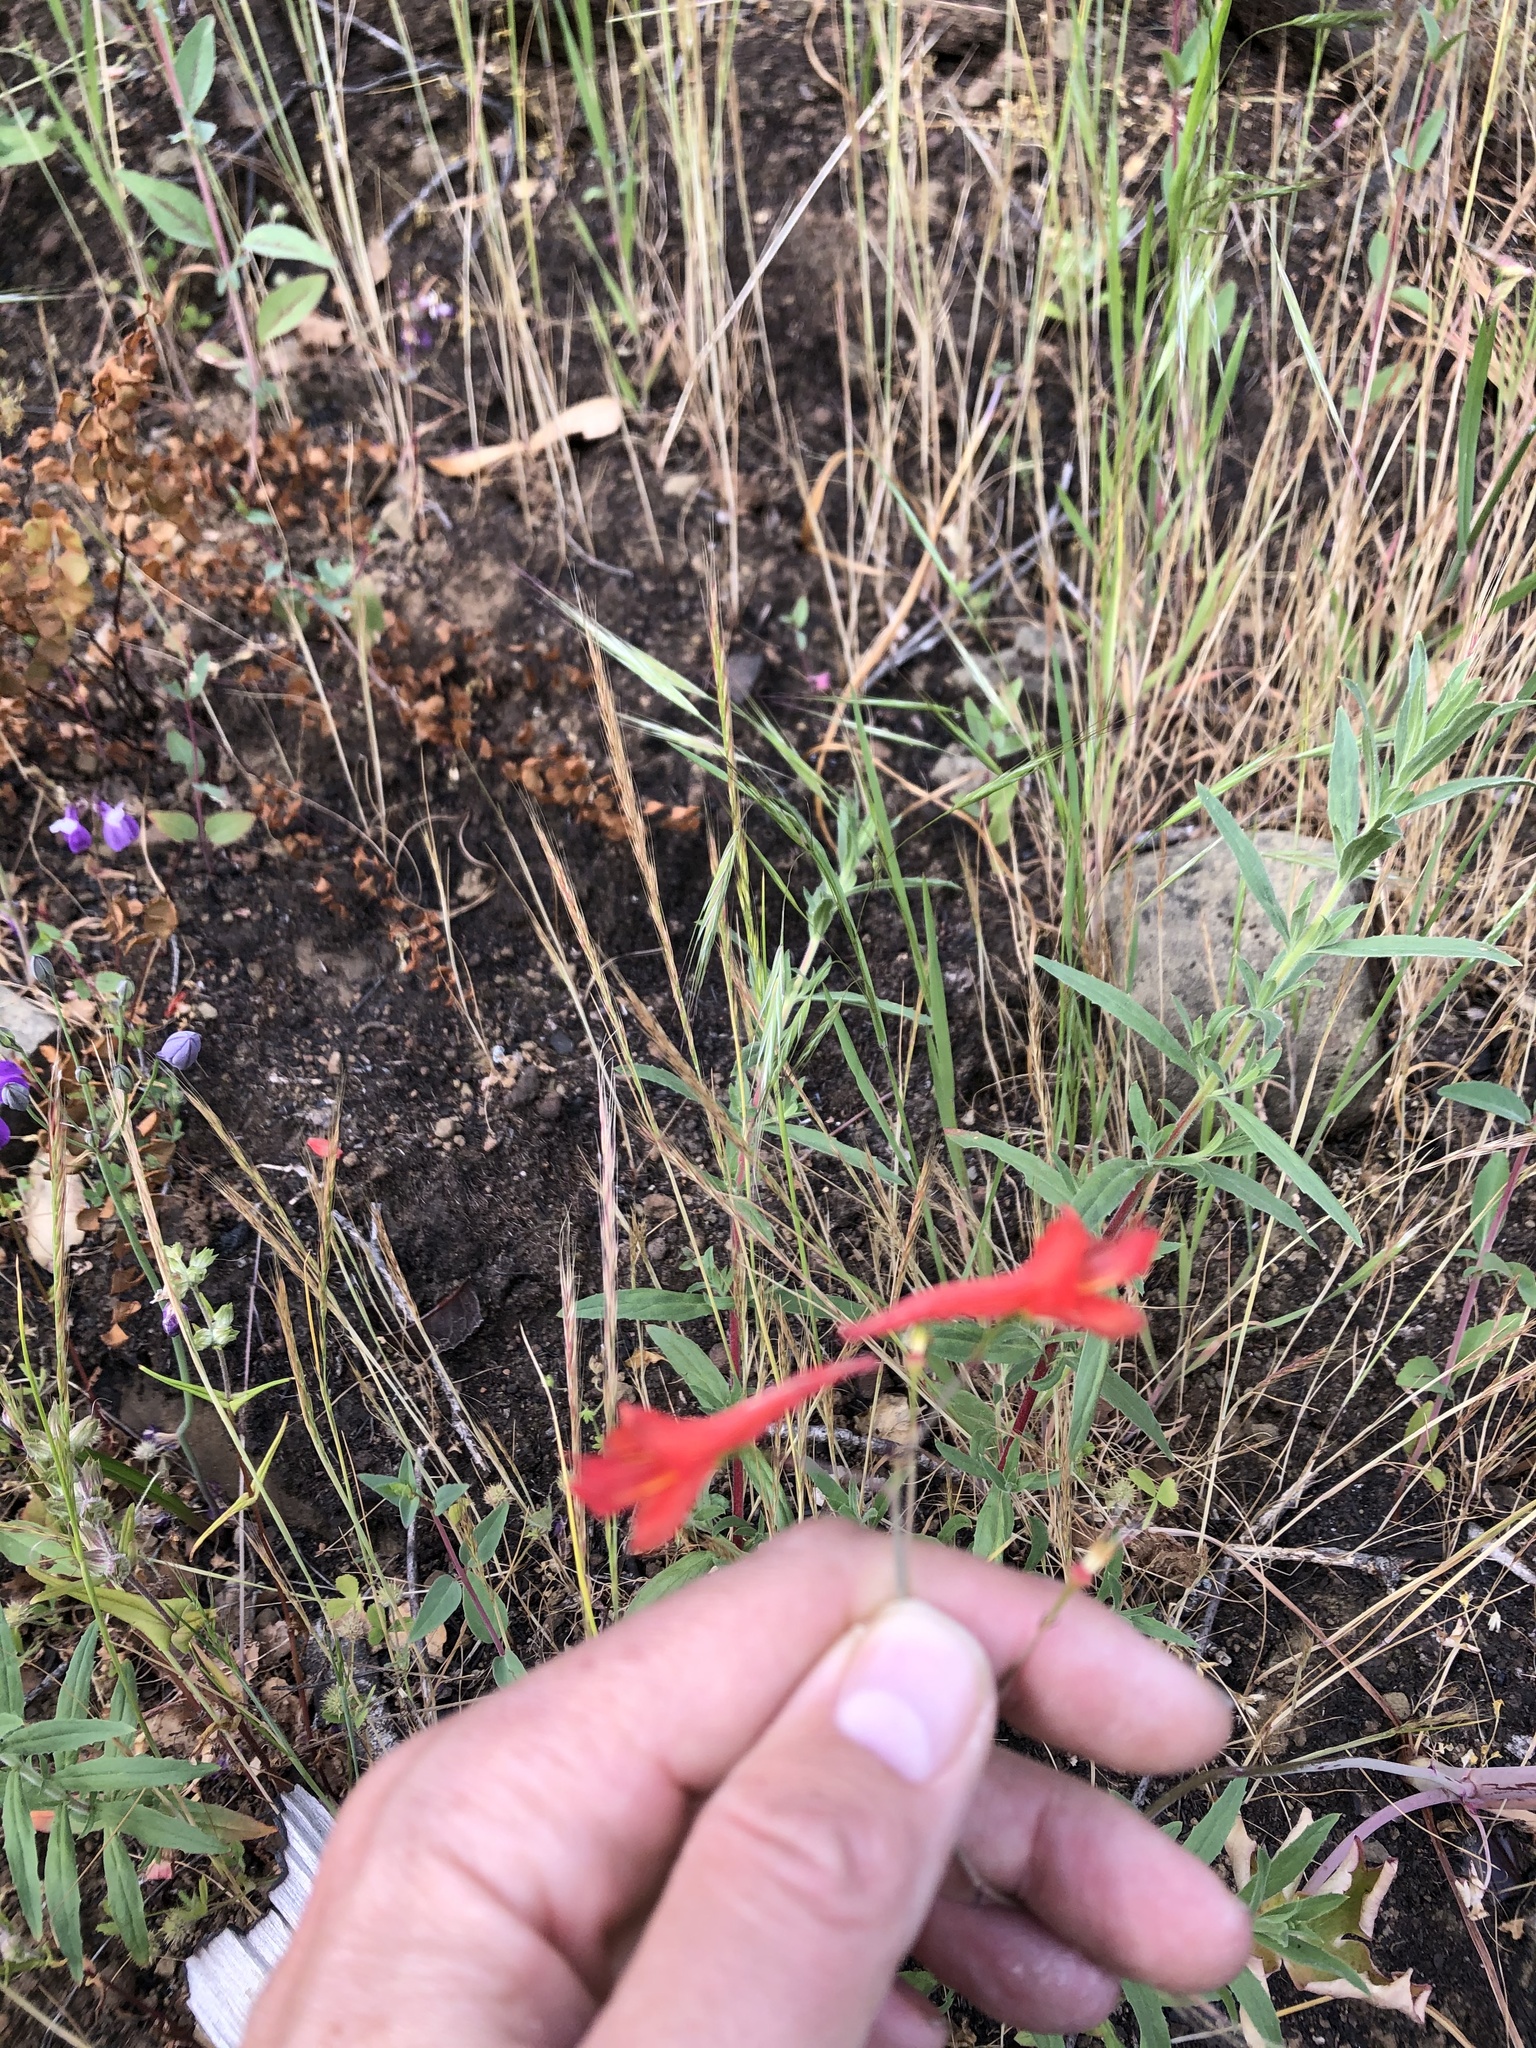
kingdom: Plantae
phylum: Tracheophyta
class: Magnoliopsida
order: Ranunculales
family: Ranunculaceae
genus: Delphinium
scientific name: Delphinium nudicaule
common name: Red larkspur
